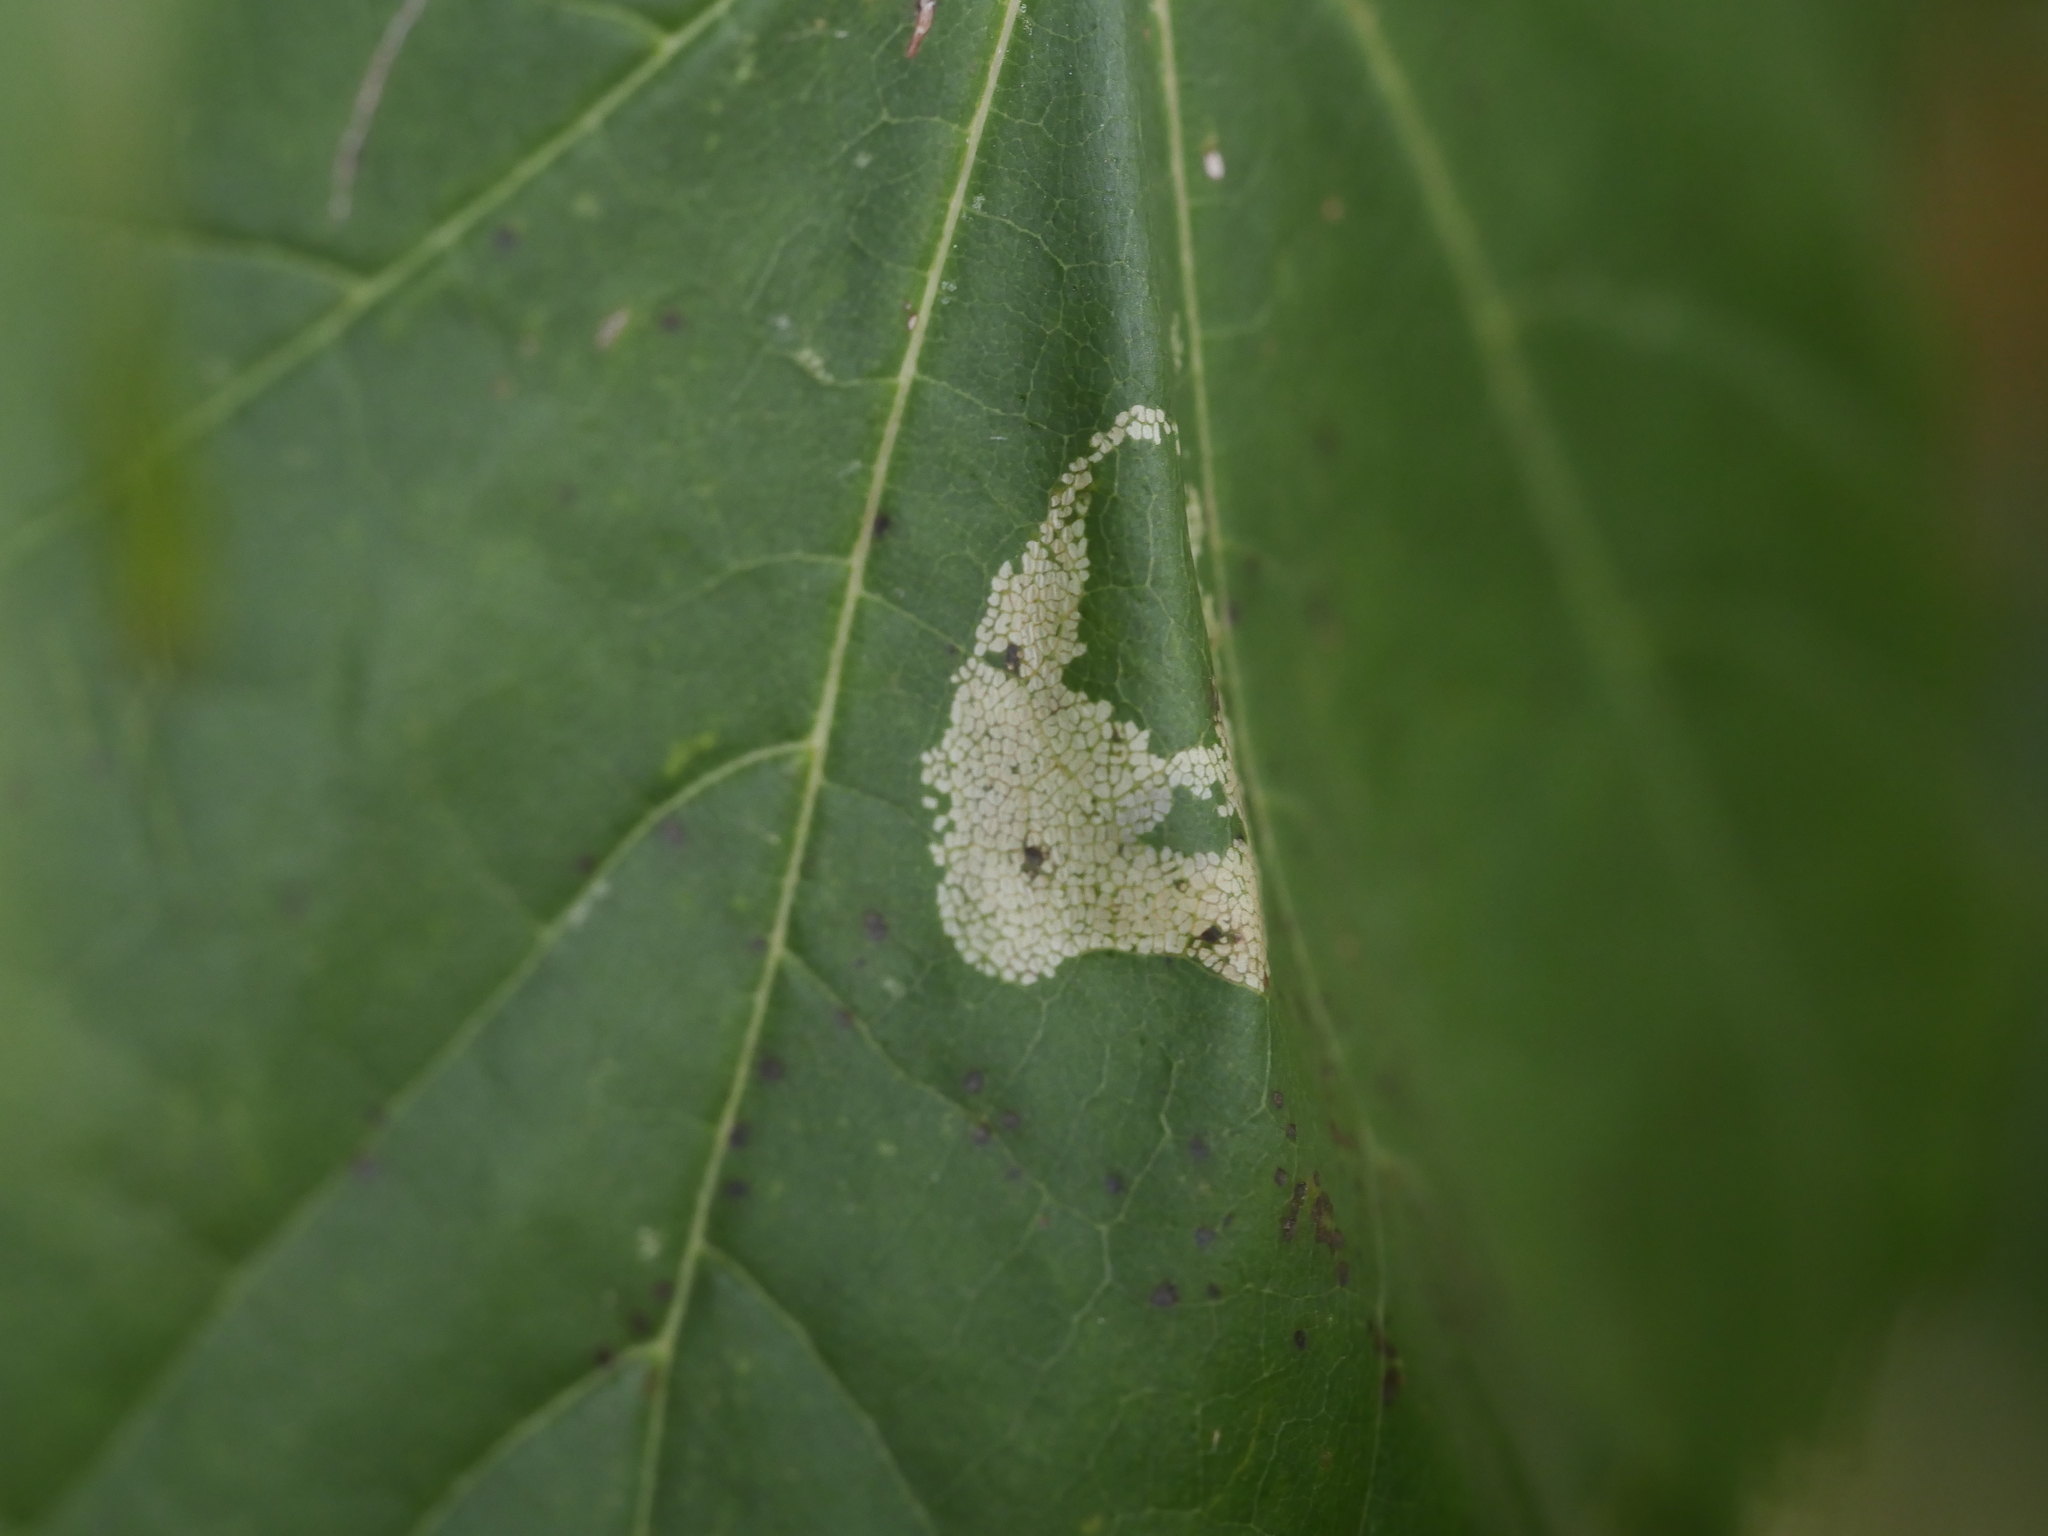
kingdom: Animalia
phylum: Arthropoda
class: Insecta
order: Lepidoptera
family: Gracillariidae
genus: Phyllonorycter
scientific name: Phyllonorycter joannisi
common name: White-bodied midget
